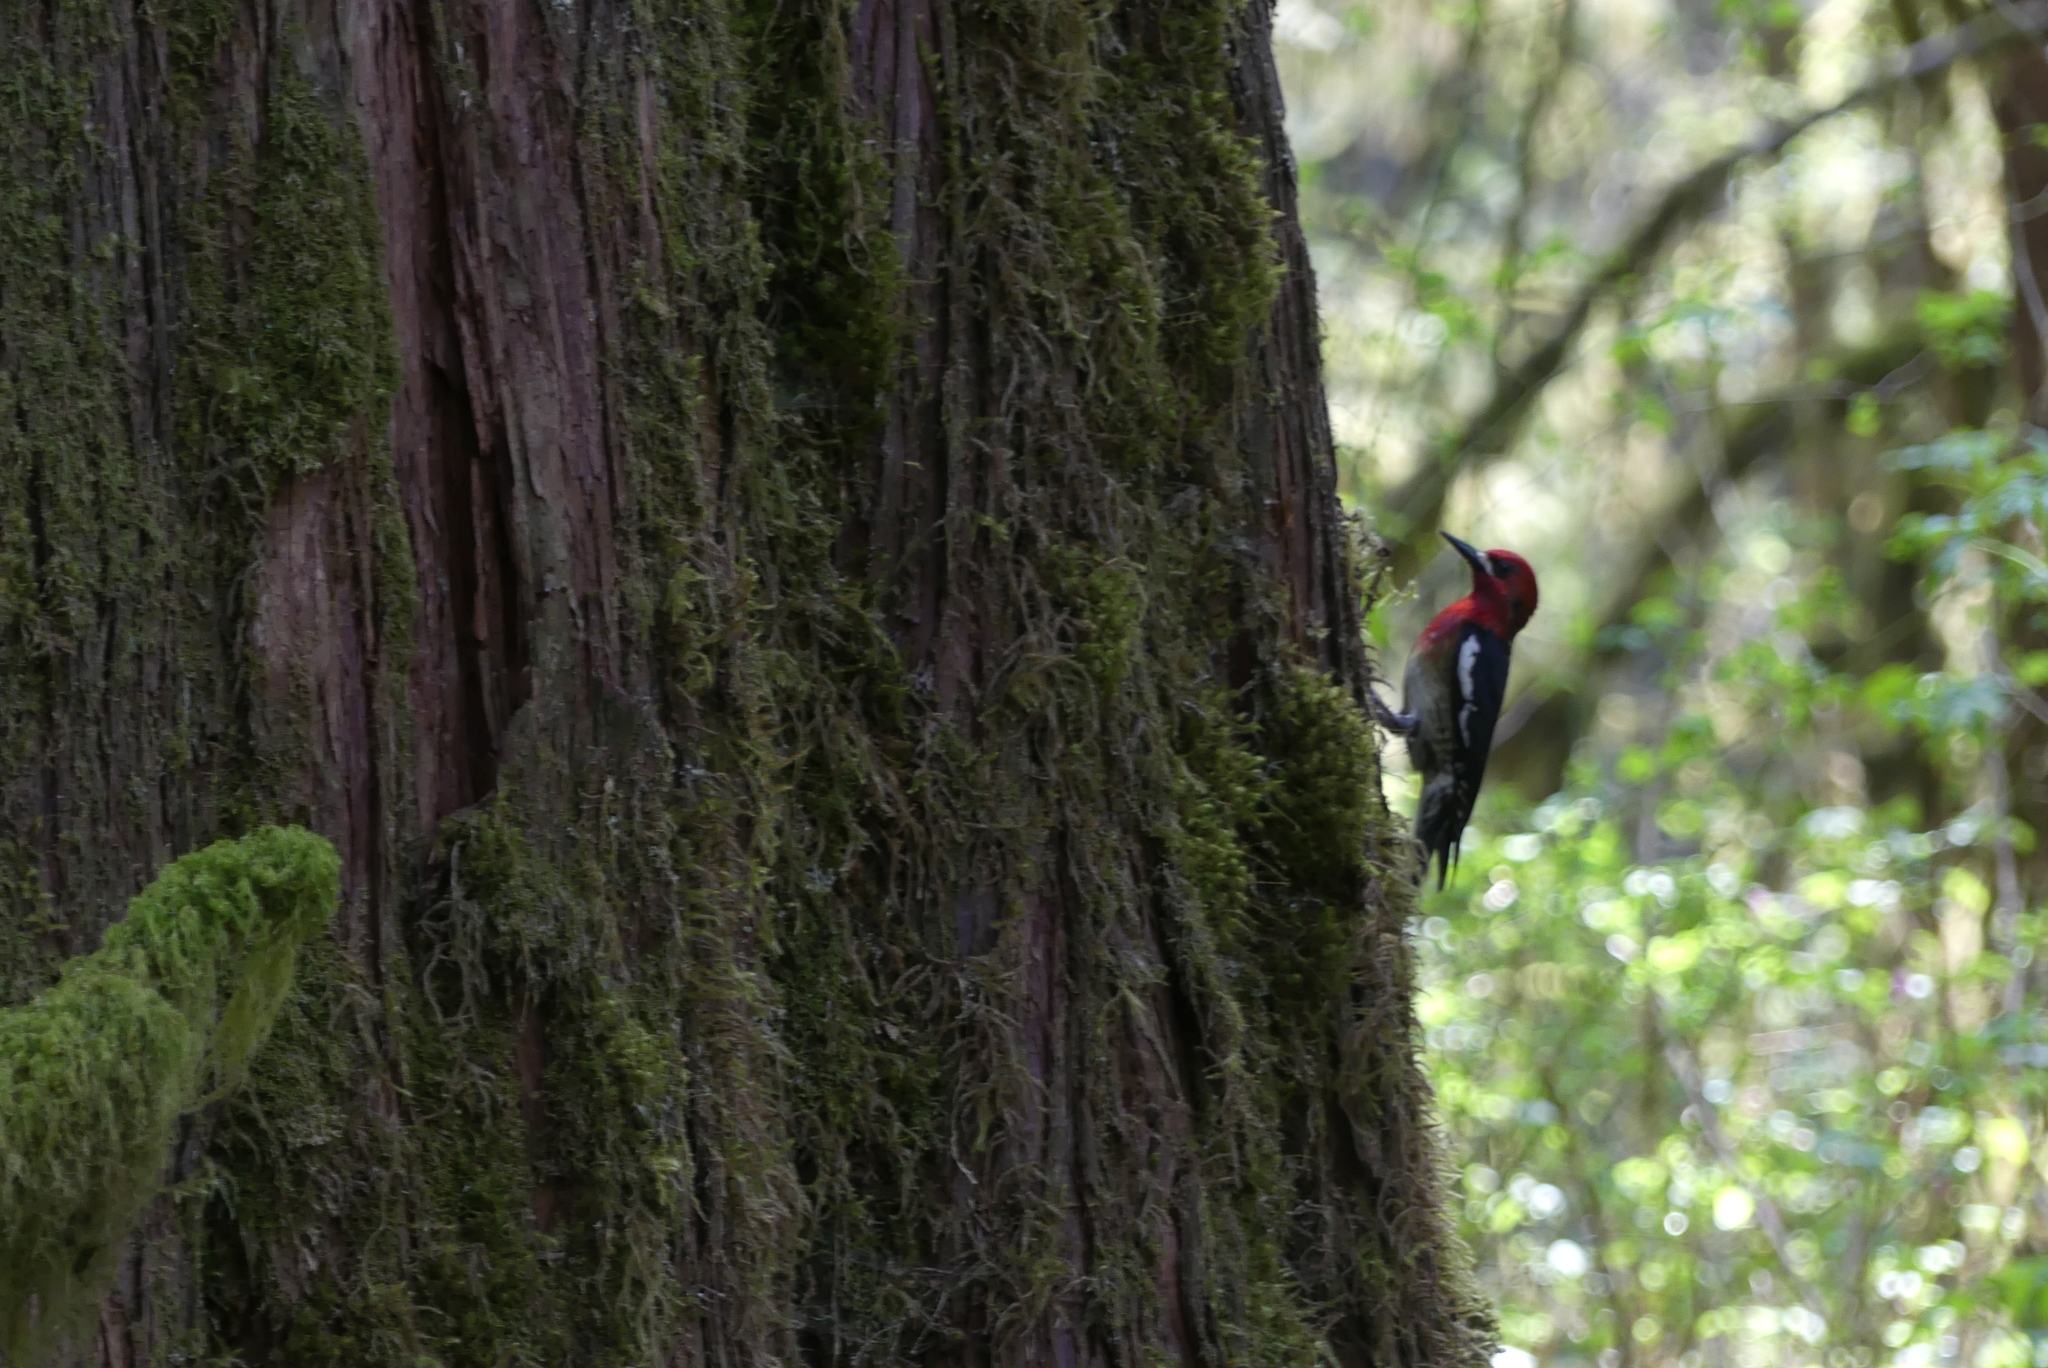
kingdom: Animalia
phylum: Chordata
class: Aves
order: Piciformes
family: Picidae
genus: Sphyrapicus
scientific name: Sphyrapicus ruber
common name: Red-breasted sapsucker
